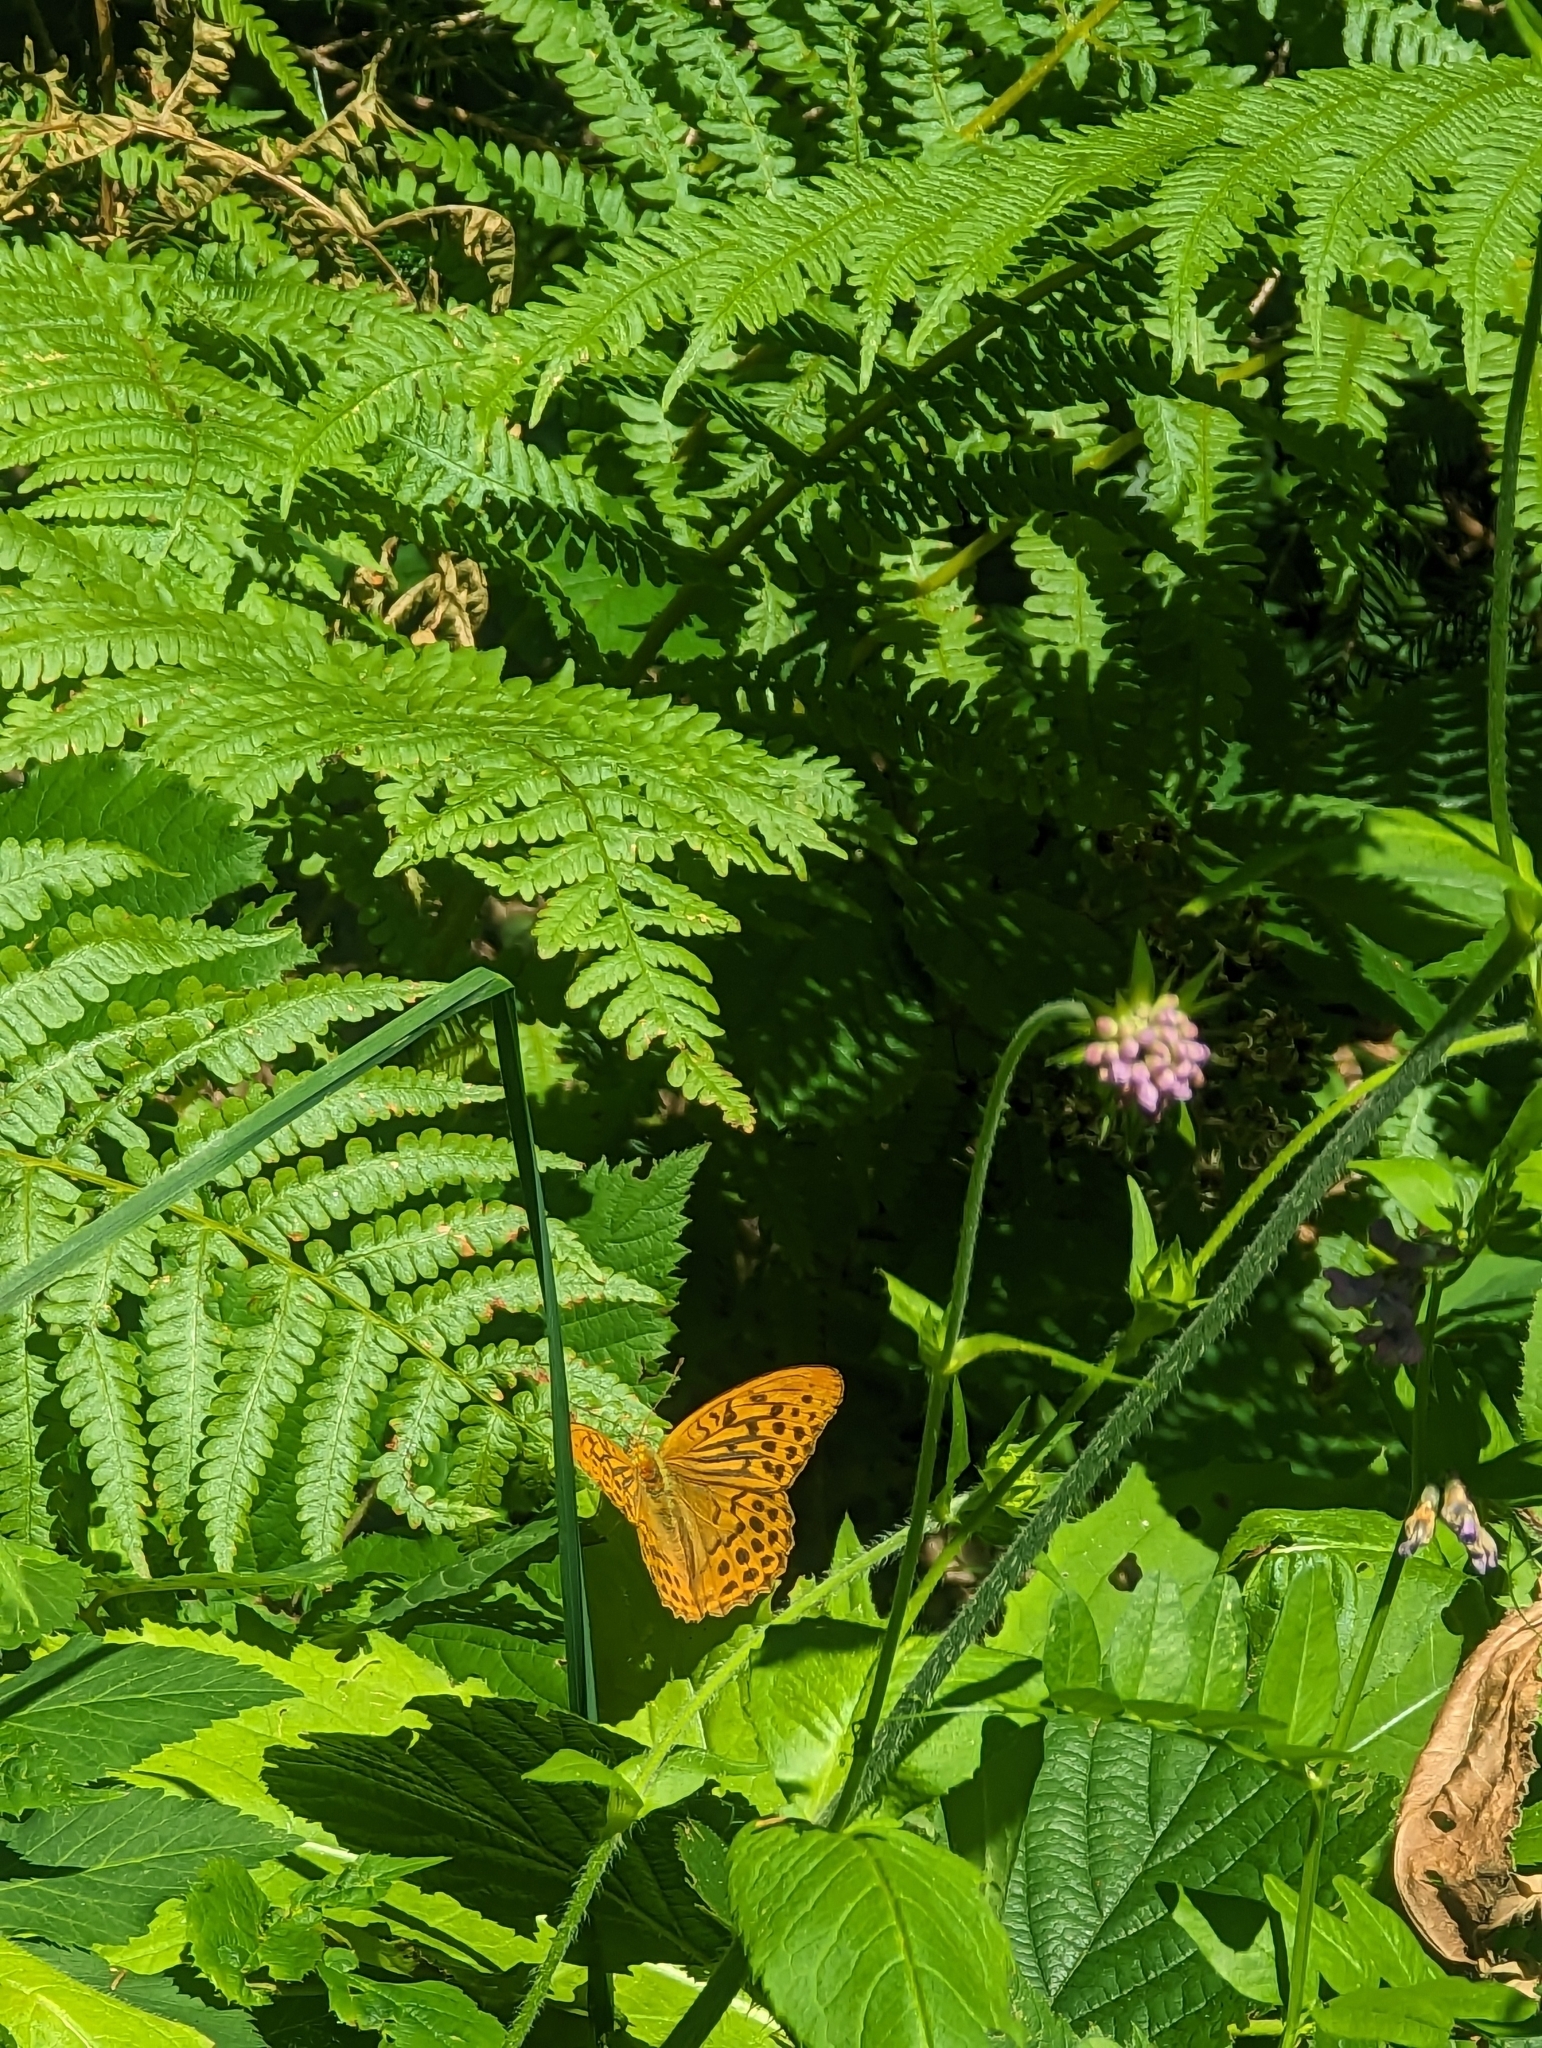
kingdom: Animalia
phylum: Arthropoda
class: Insecta
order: Lepidoptera
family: Nymphalidae
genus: Argynnis
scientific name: Argynnis paphia
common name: Silver-washed fritillary
